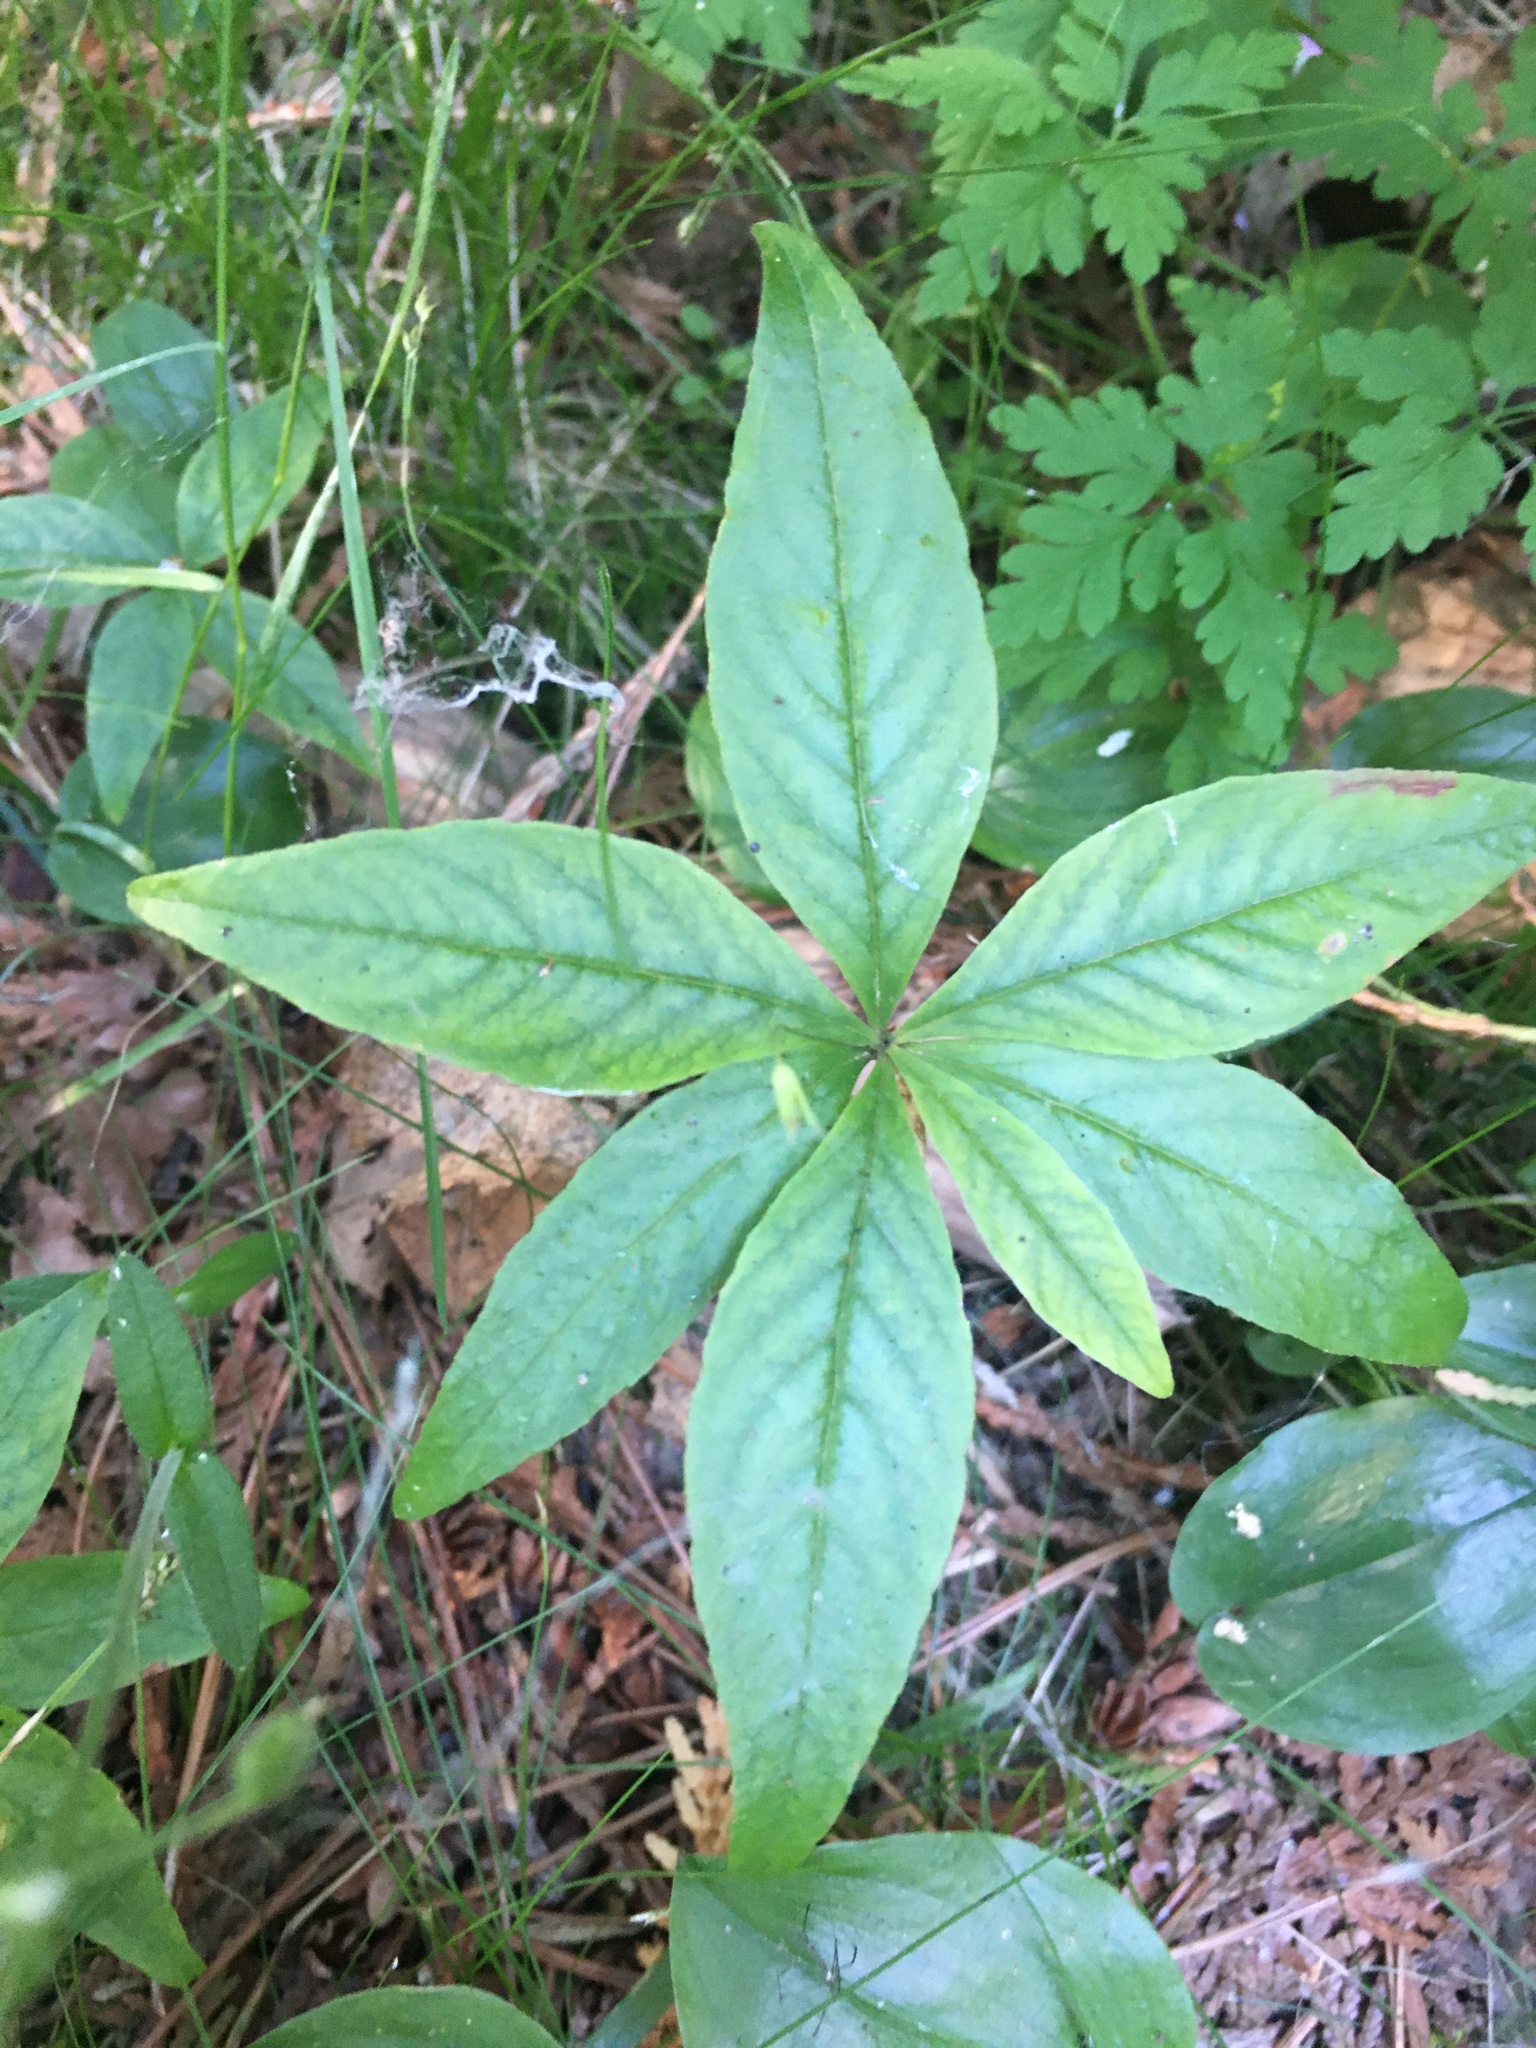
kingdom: Plantae
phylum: Tracheophyta
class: Magnoliopsida
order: Ericales
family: Primulaceae
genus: Lysimachia
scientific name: Lysimachia borealis
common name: American starflower
